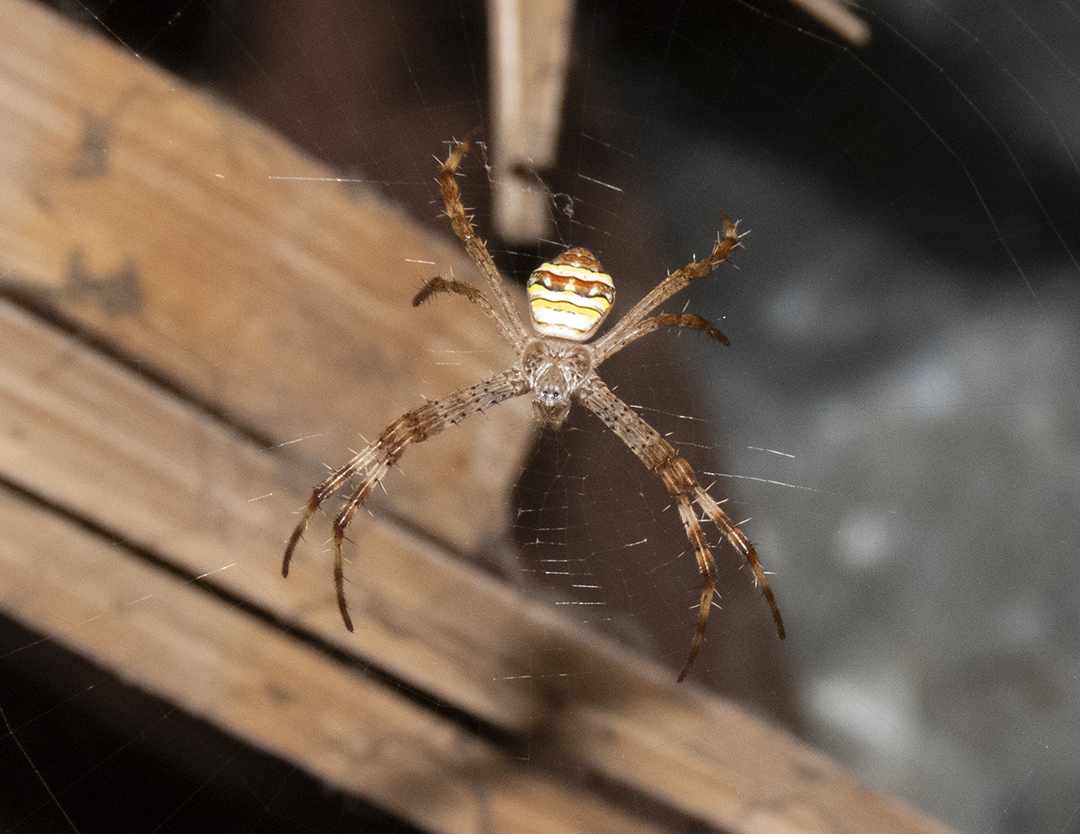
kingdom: Animalia
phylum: Arthropoda
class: Arachnida
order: Araneae
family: Araneidae
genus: Argiope
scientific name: Argiope pulchella
